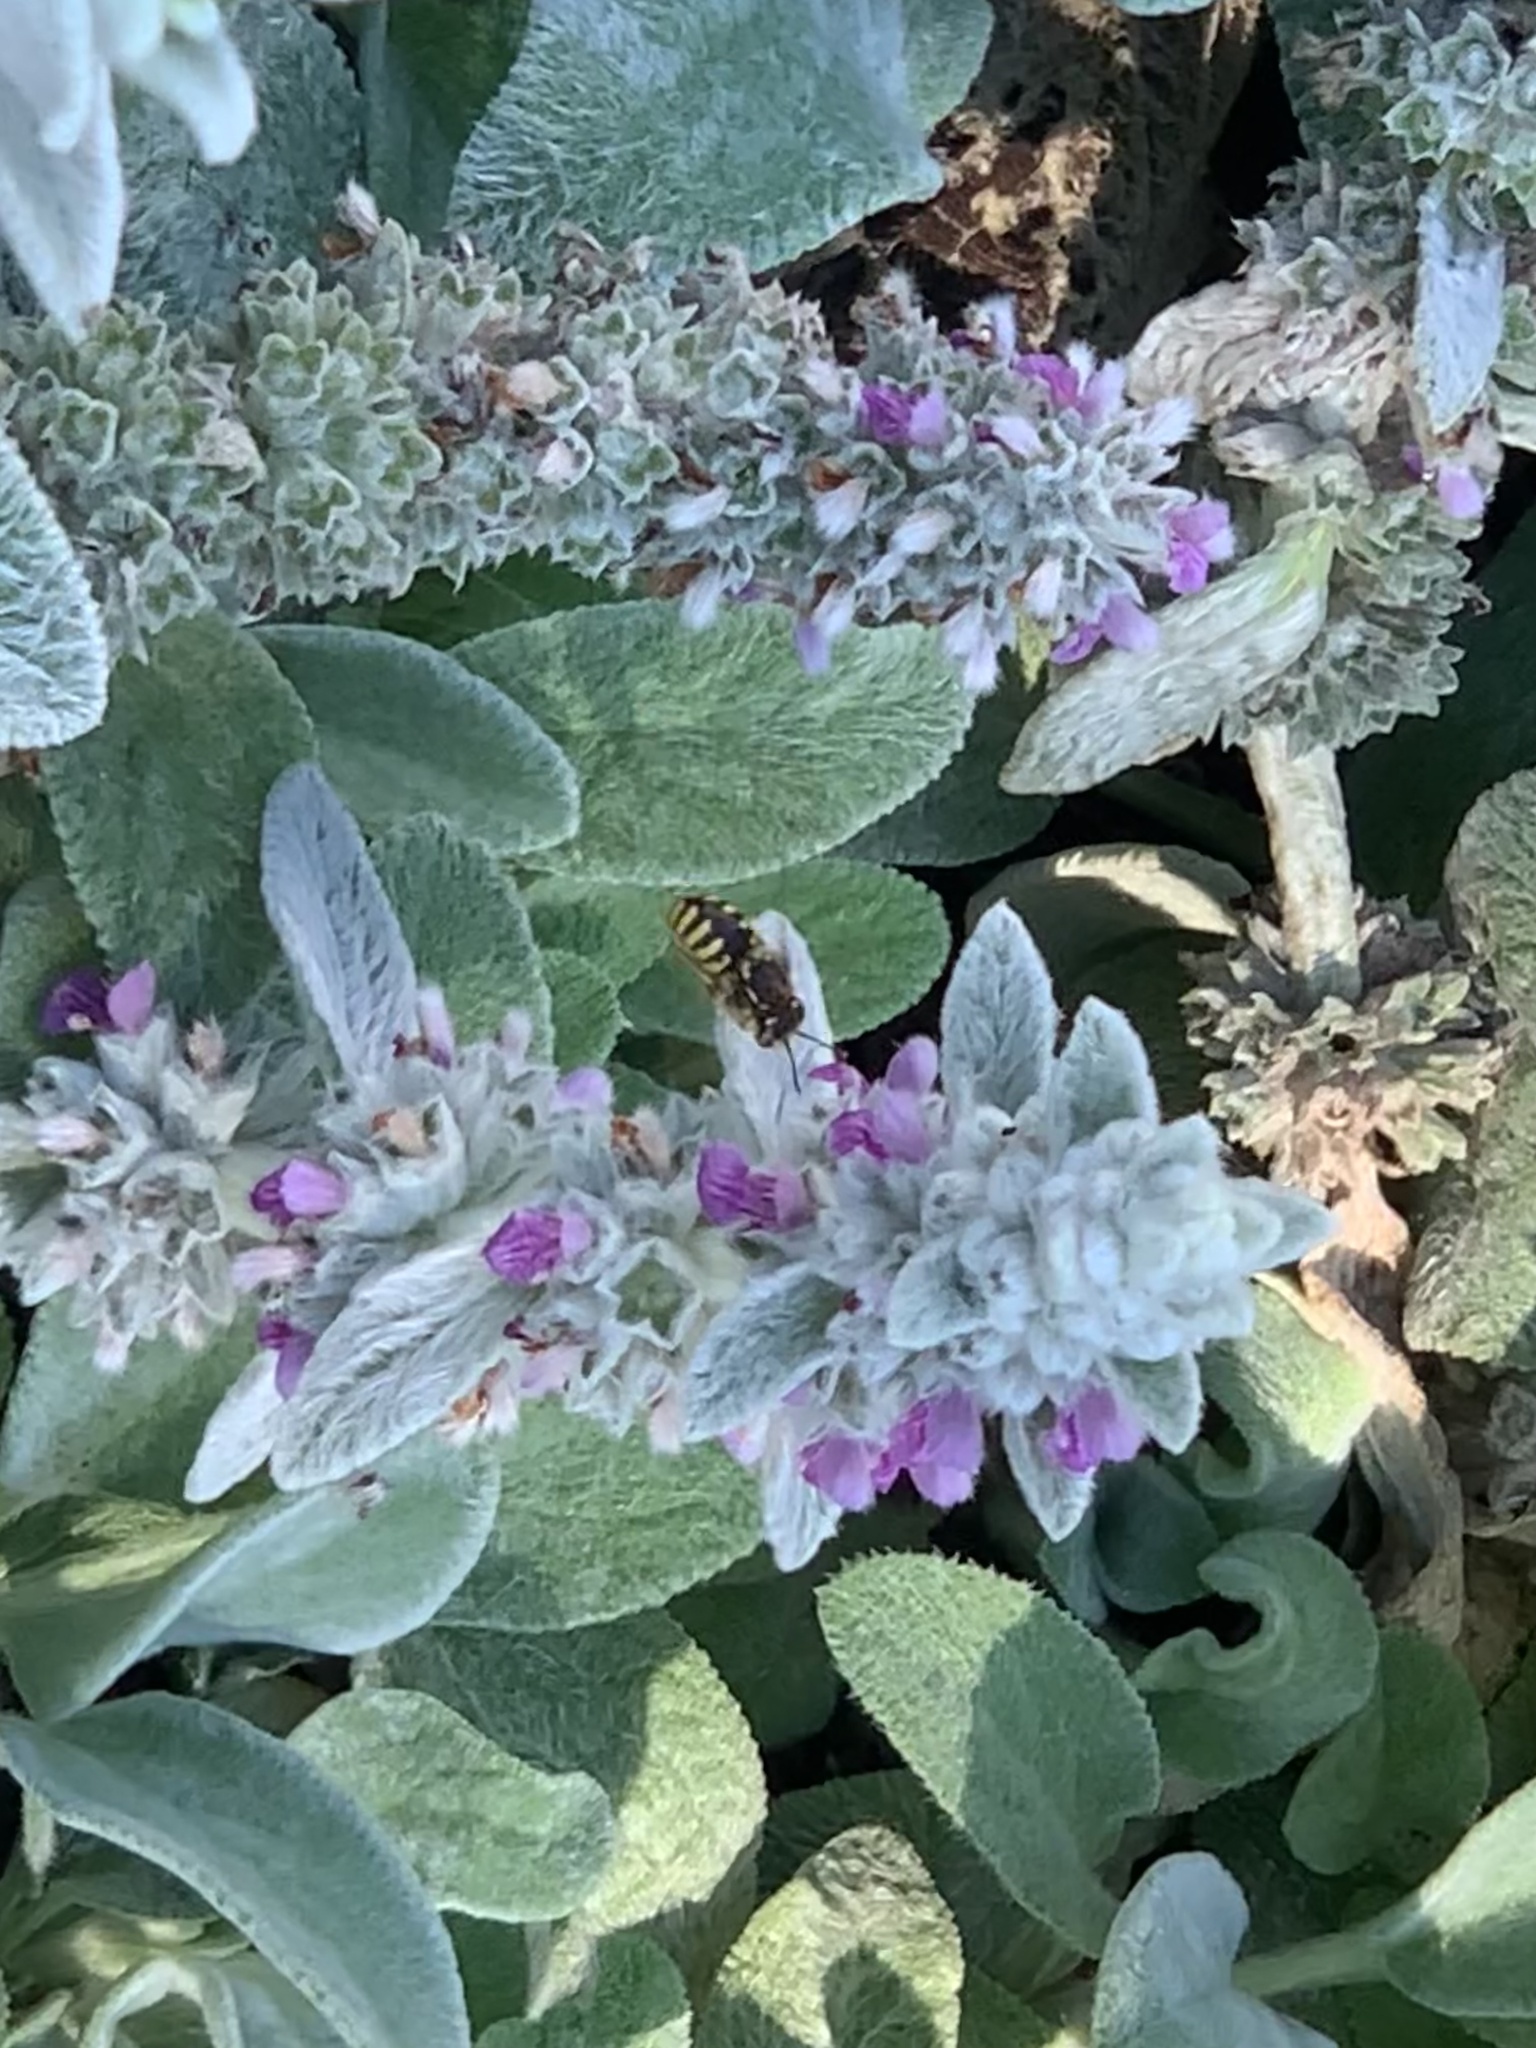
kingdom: Animalia
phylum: Arthropoda
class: Insecta
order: Hymenoptera
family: Megachilidae
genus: Anthidium
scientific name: Anthidium manicatum
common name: Wool carder bee
